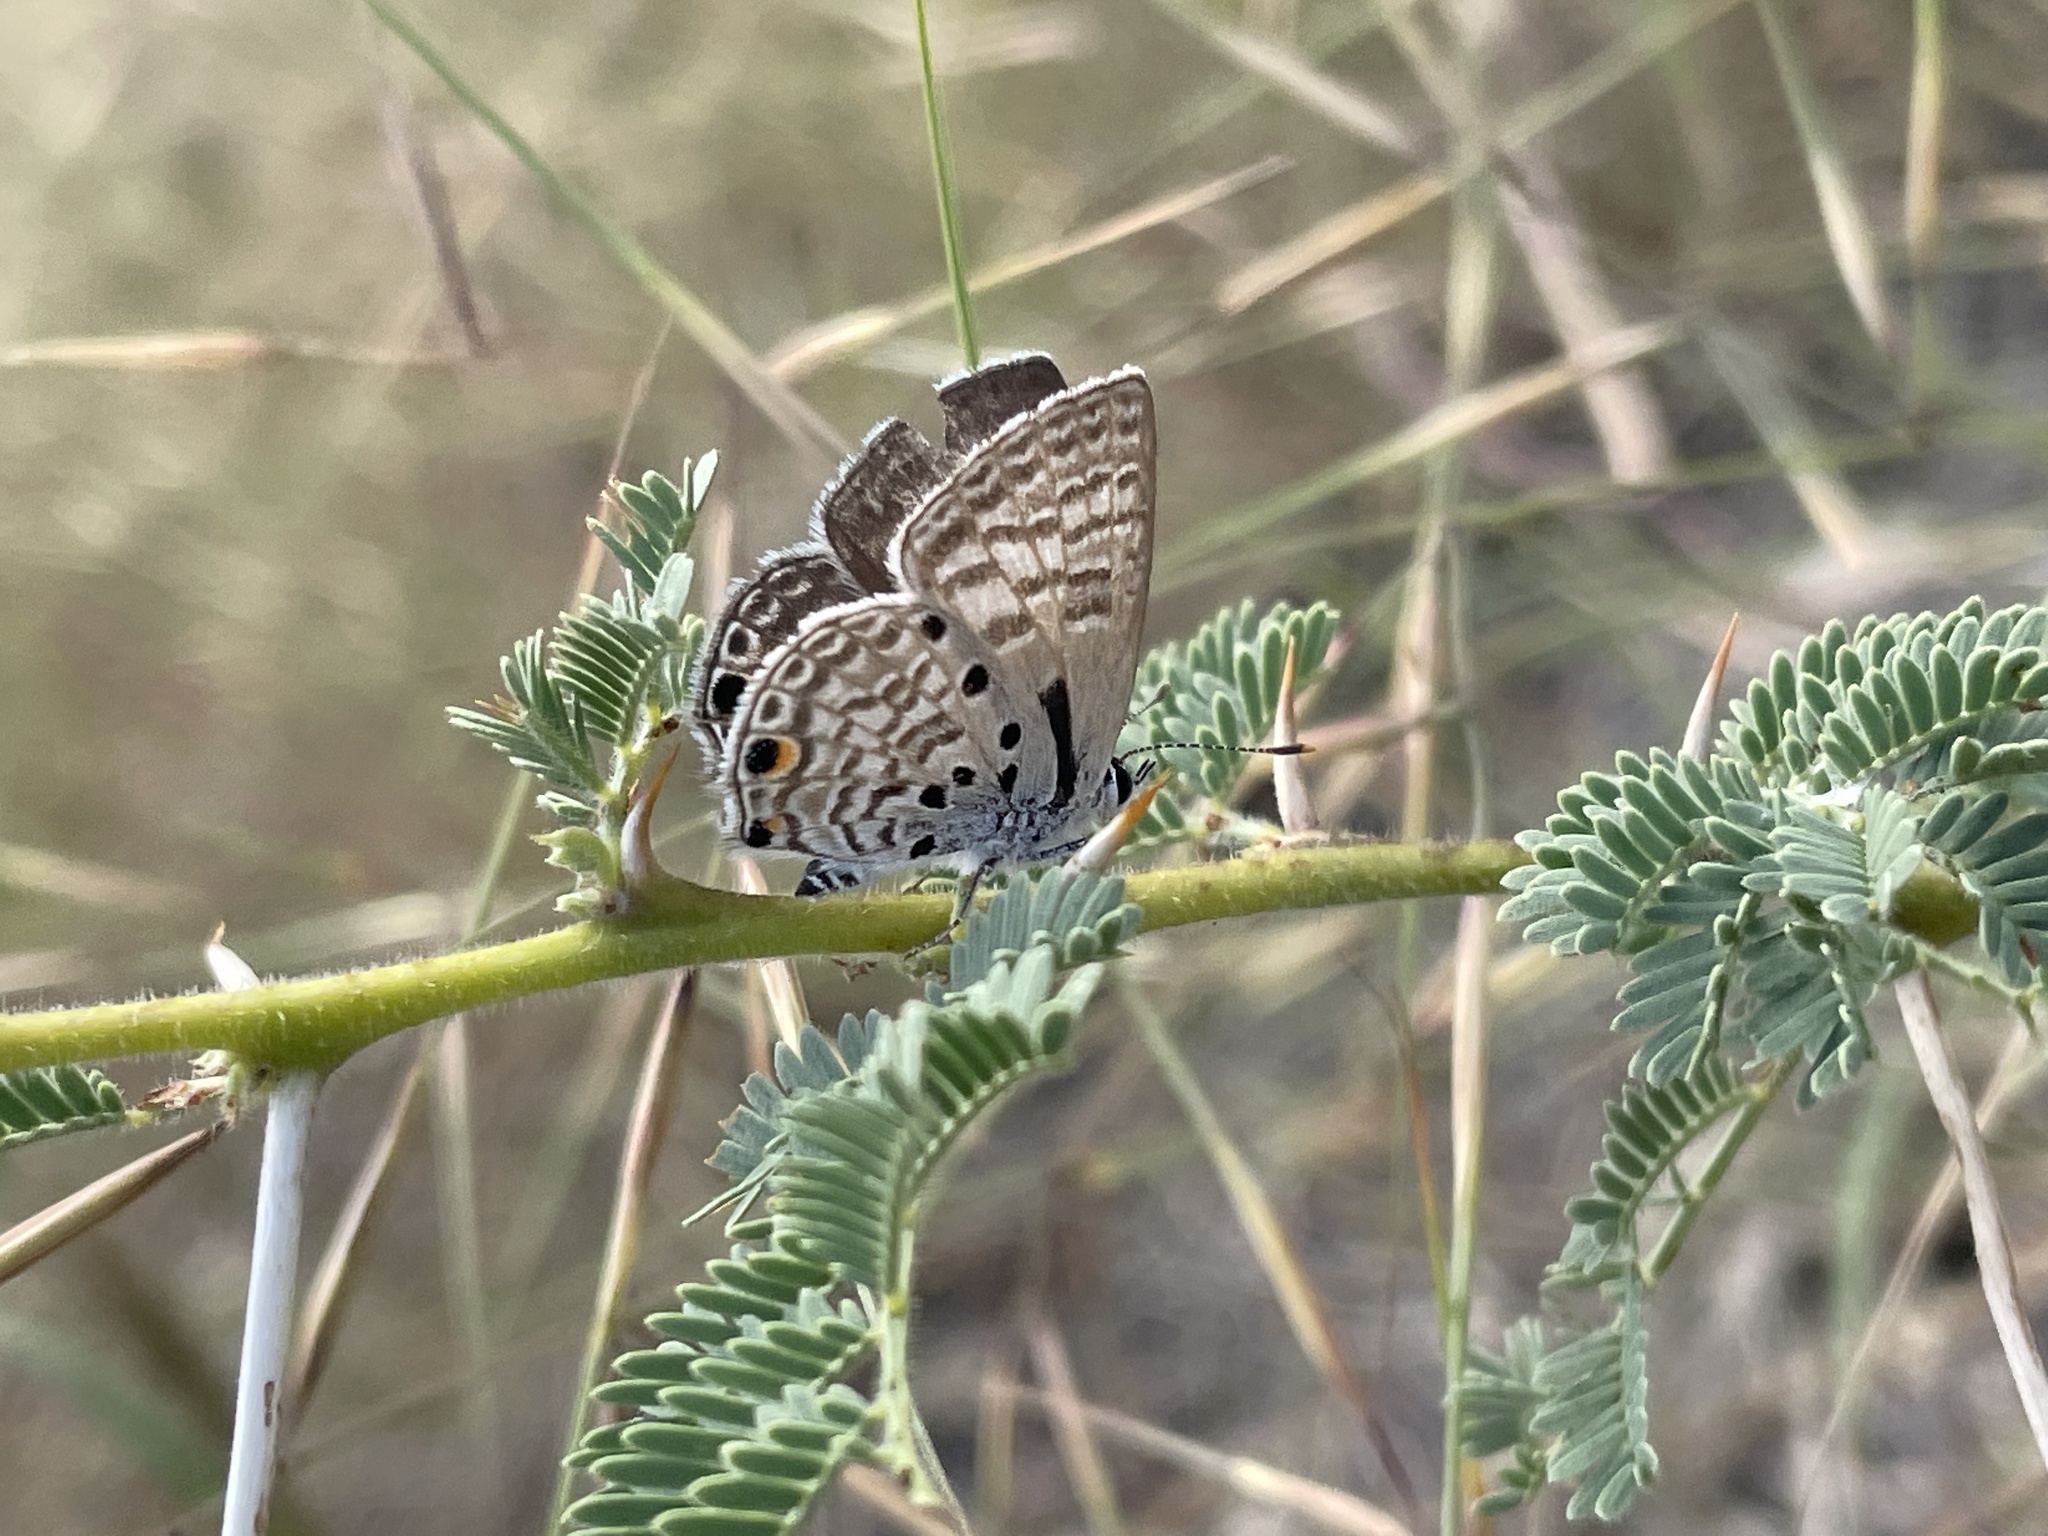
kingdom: Animalia
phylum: Arthropoda
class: Insecta
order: Lepidoptera
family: Lycaenidae
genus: Anthene
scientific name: Anthene amarah
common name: Black-striped hairtail
